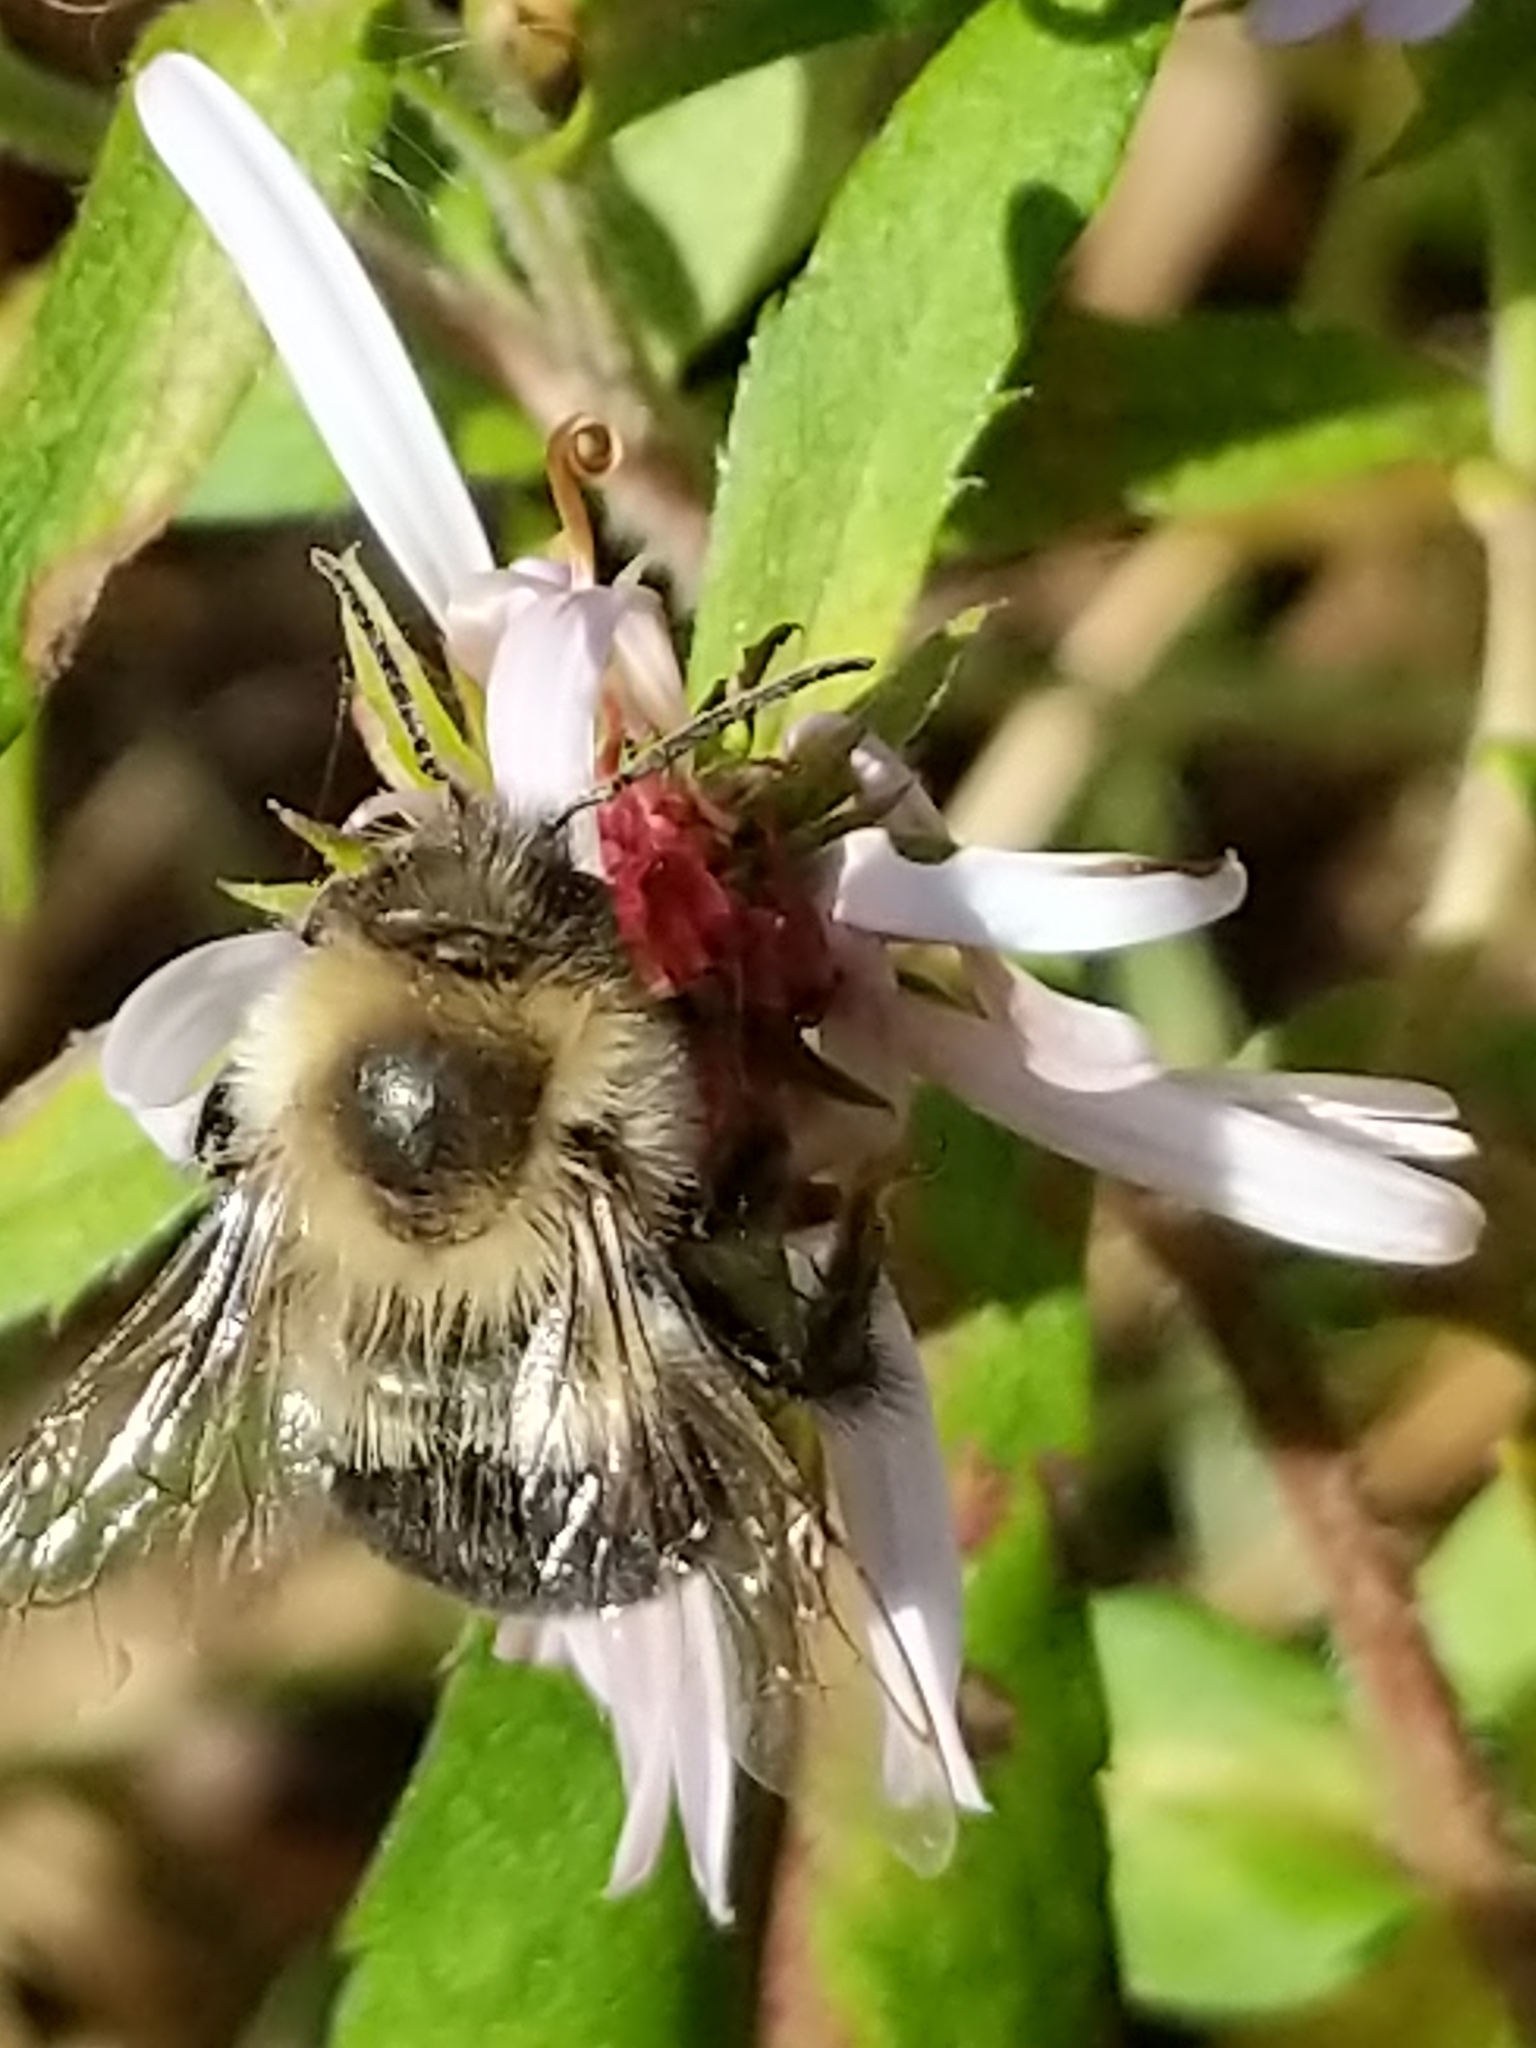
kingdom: Animalia
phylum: Arthropoda
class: Insecta
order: Hymenoptera
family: Apidae
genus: Bombus
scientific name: Bombus impatiens
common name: Common eastern bumble bee
